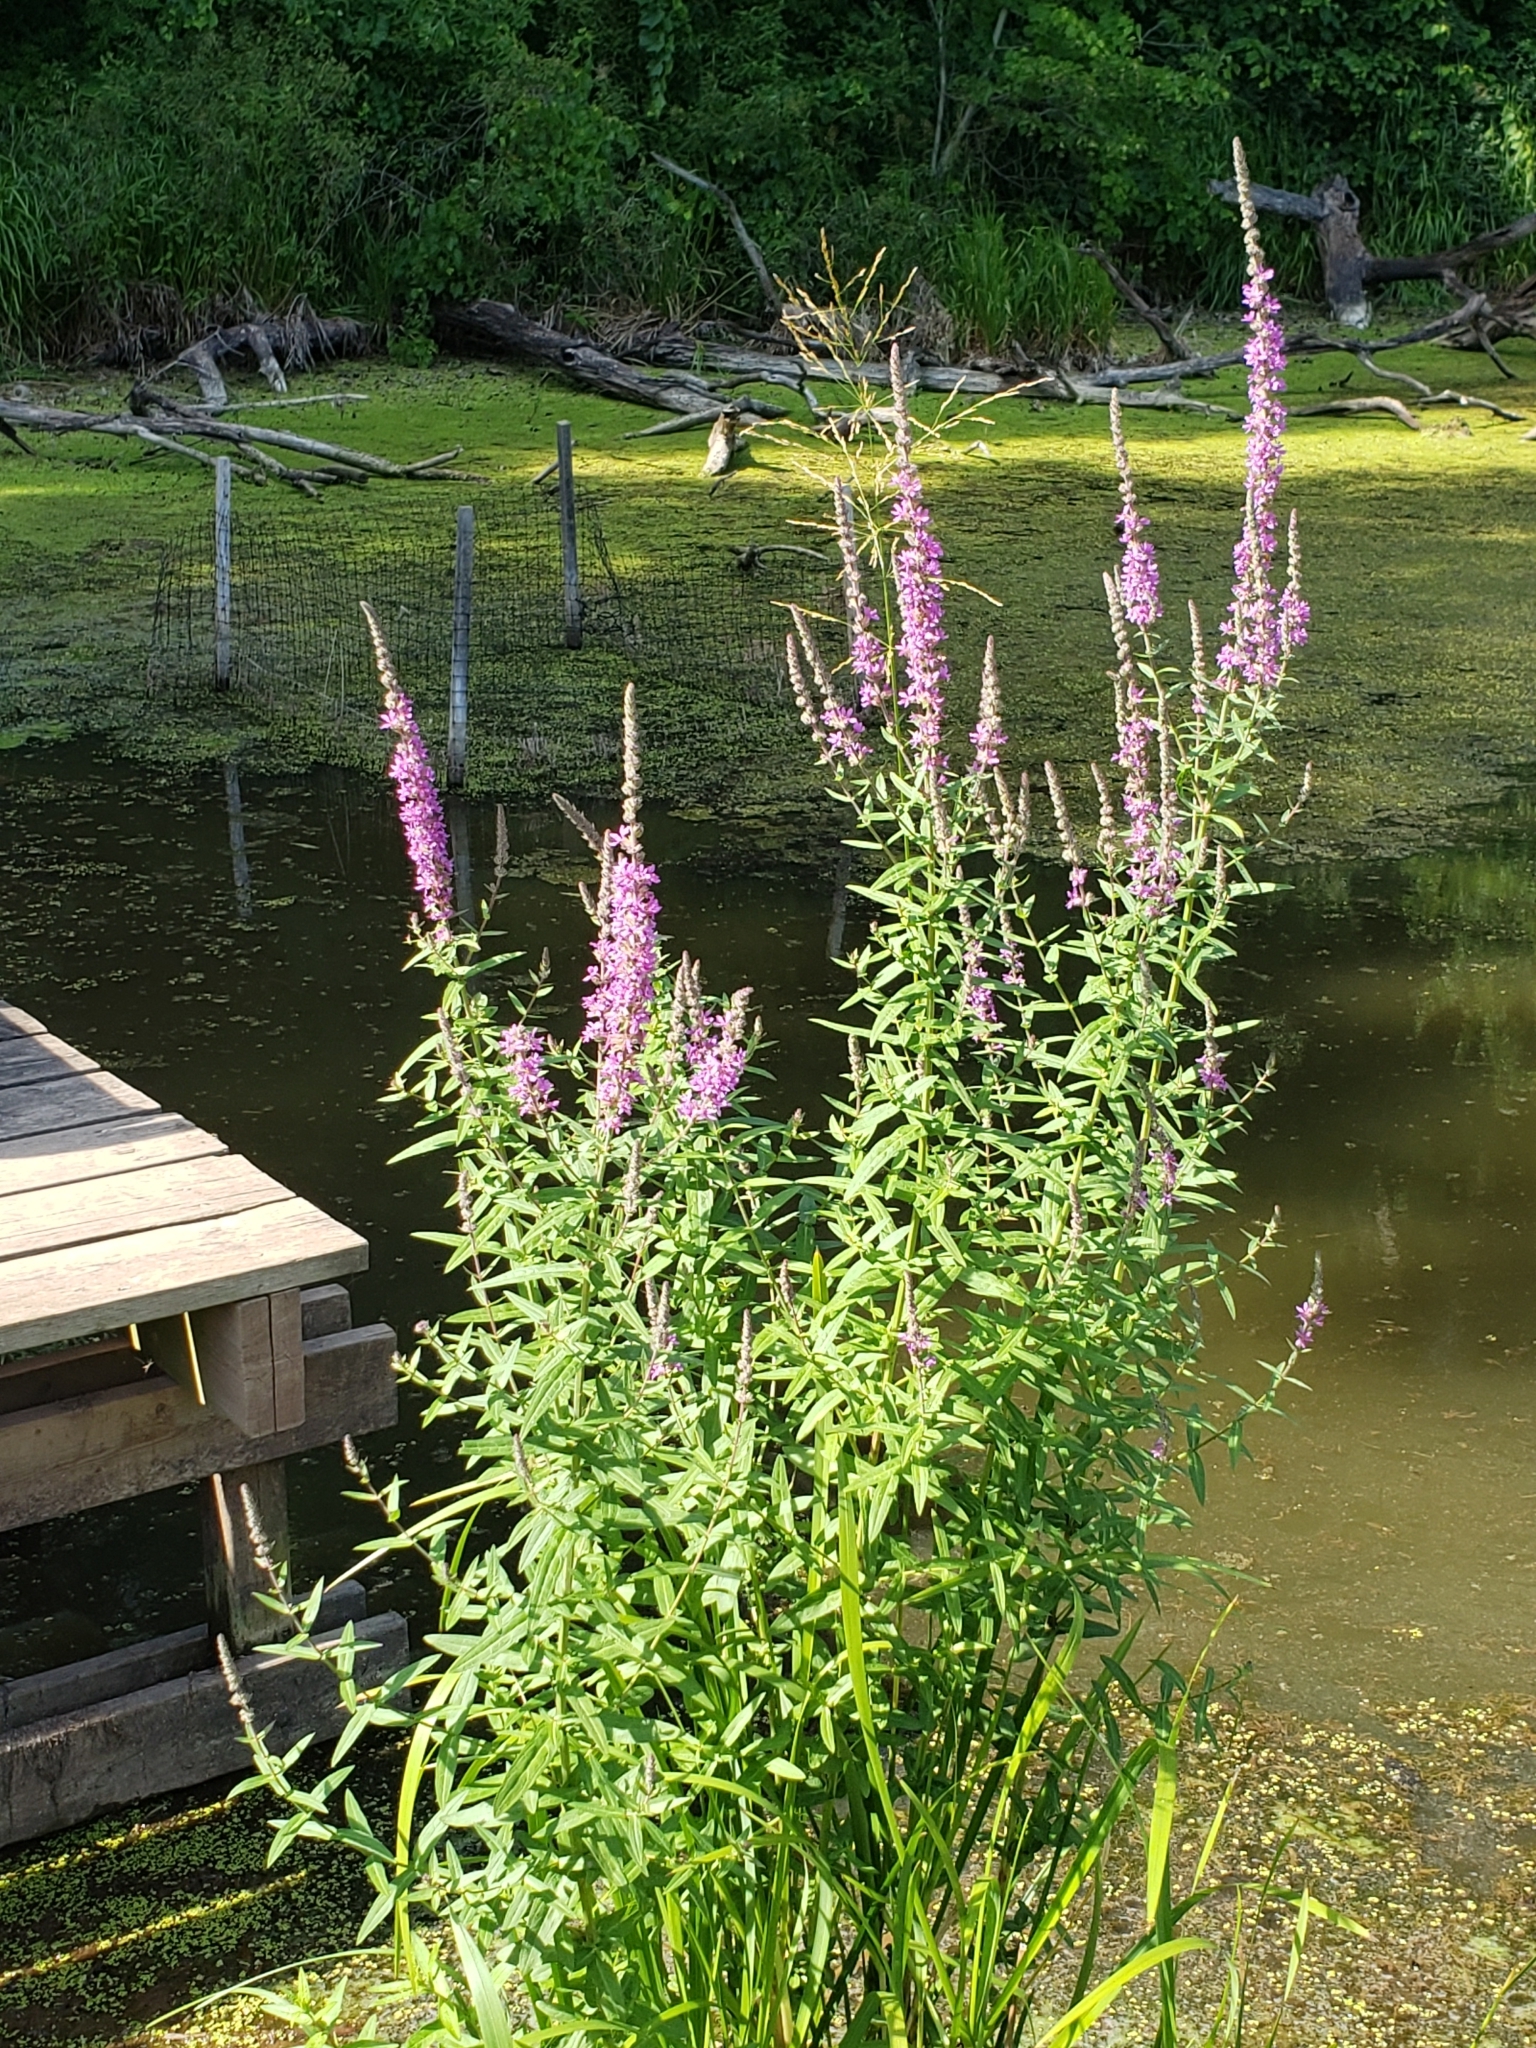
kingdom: Plantae
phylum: Tracheophyta
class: Magnoliopsida
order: Myrtales
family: Lythraceae
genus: Lythrum
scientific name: Lythrum salicaria
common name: Purple loosestrife
